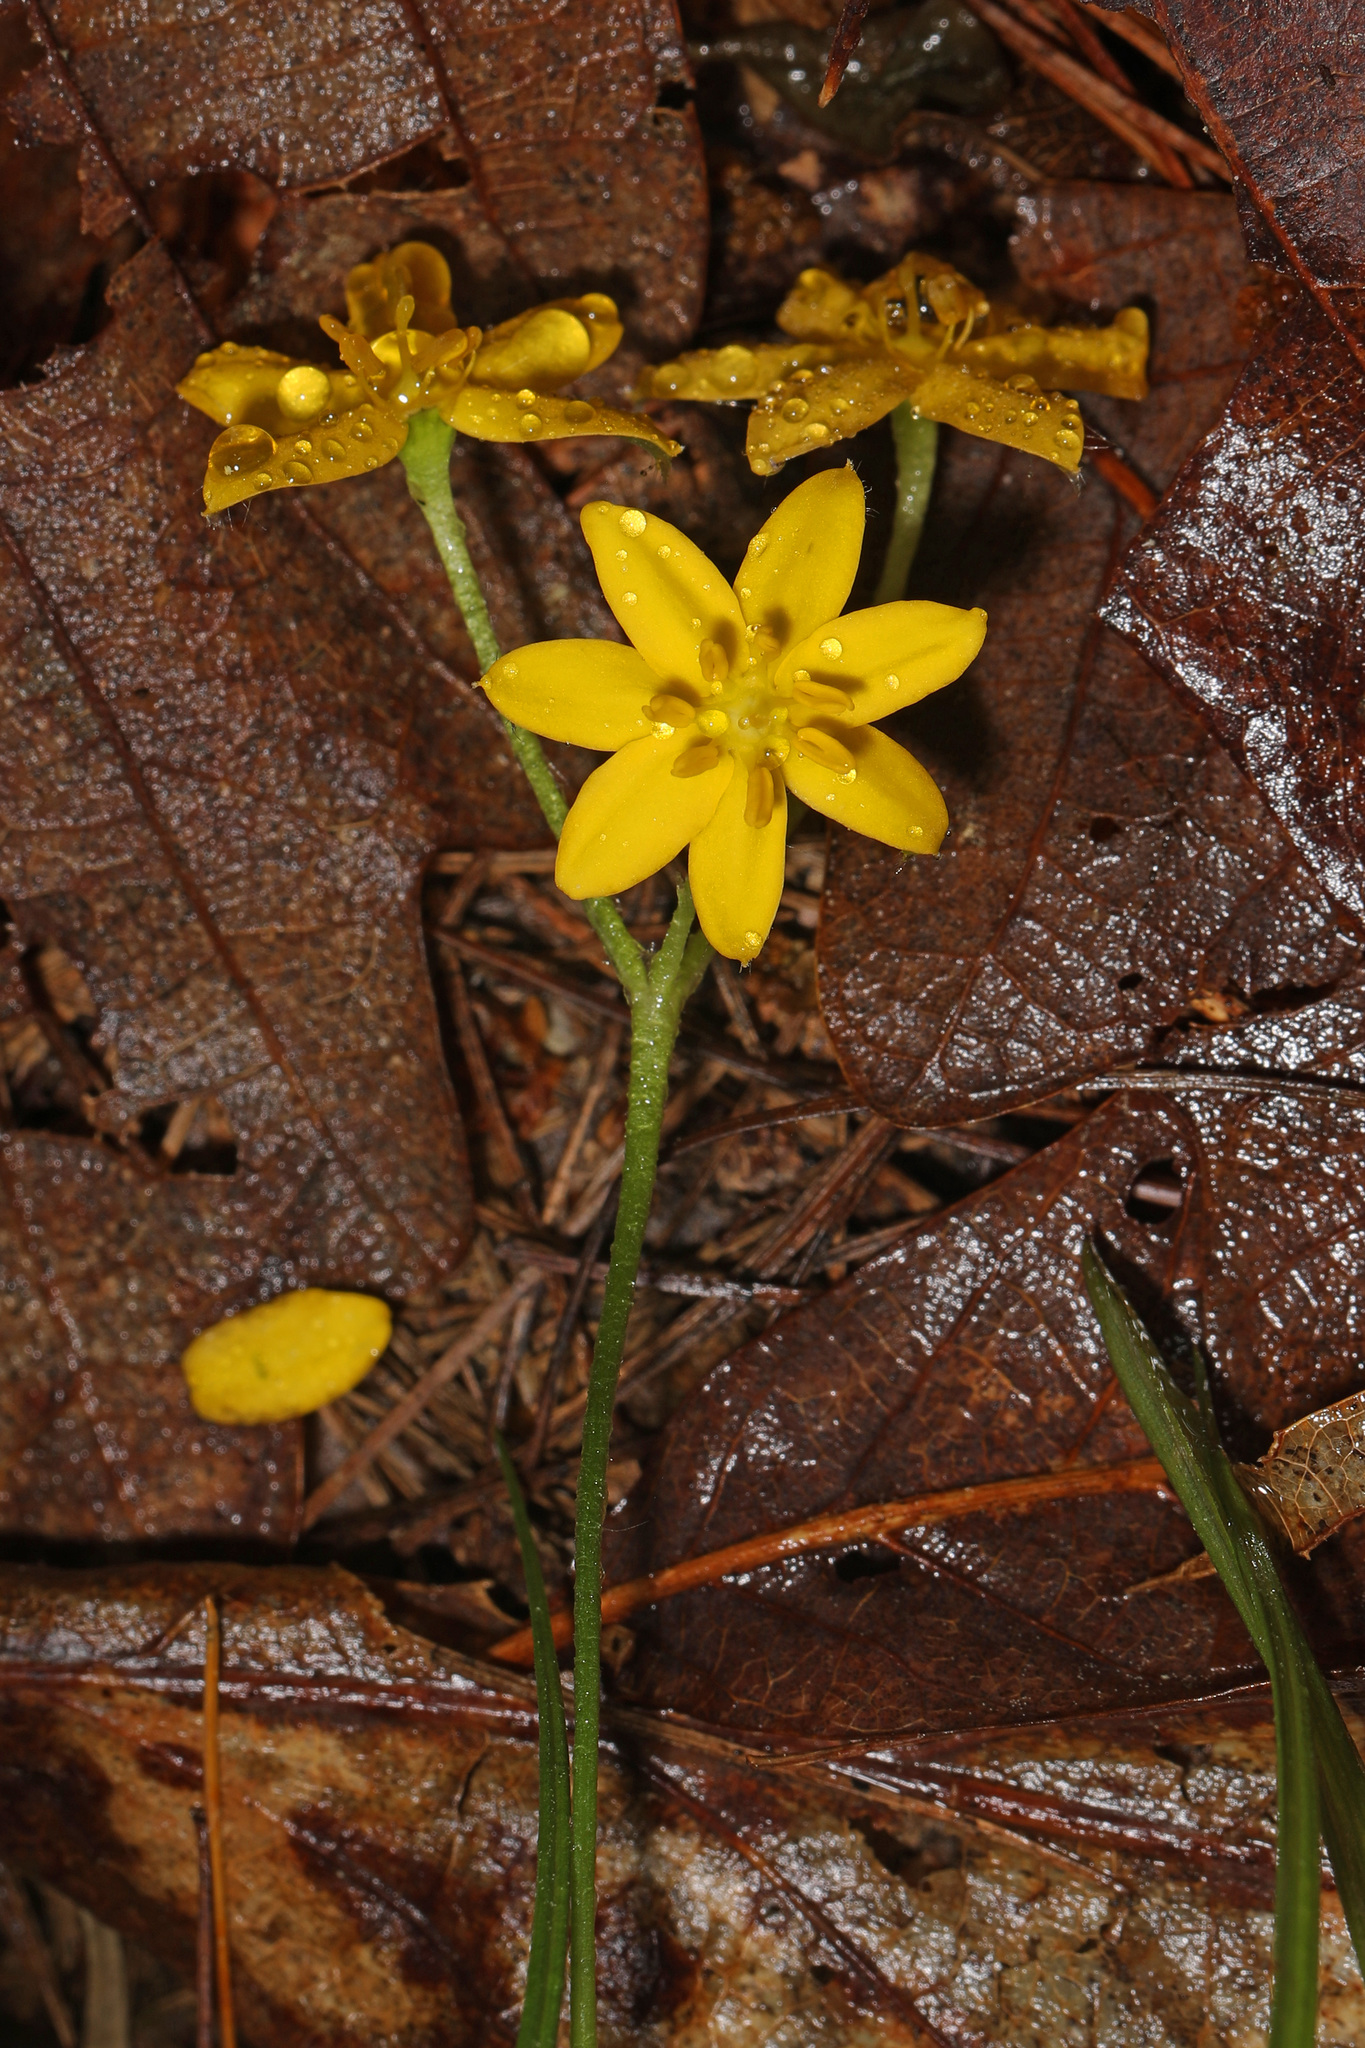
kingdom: Plantae
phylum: Tracheophyta
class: Liliopsida
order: Asparagales
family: Hypoxidaceae
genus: Hypoxis
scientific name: Hypoxis hirsuta
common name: Common goldstar
